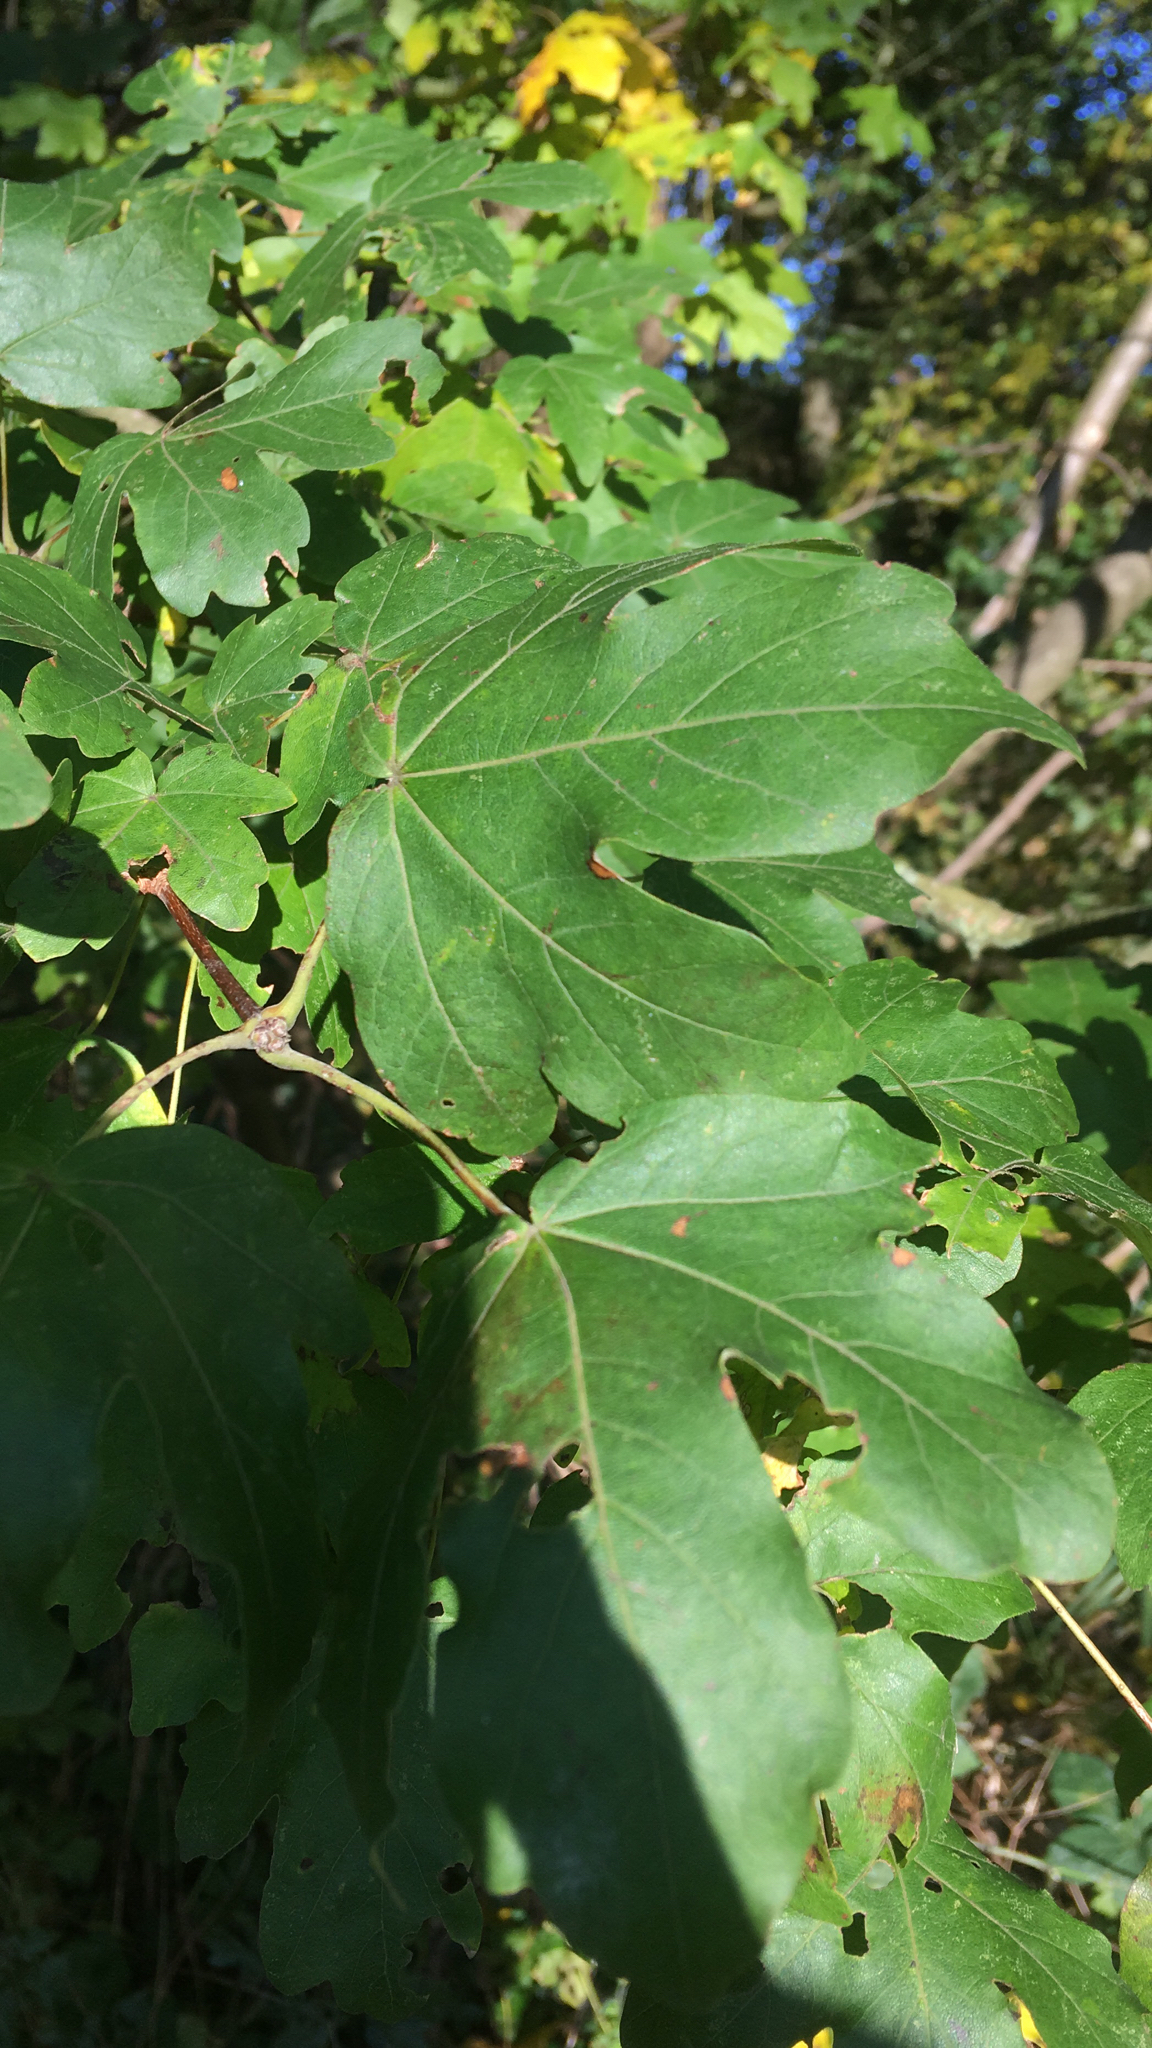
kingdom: Plantae
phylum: Tracheophyta
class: Magnoliopsida
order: Sapindales
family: Sapindaceae
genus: Acer
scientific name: Acer campestre
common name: Field maple
